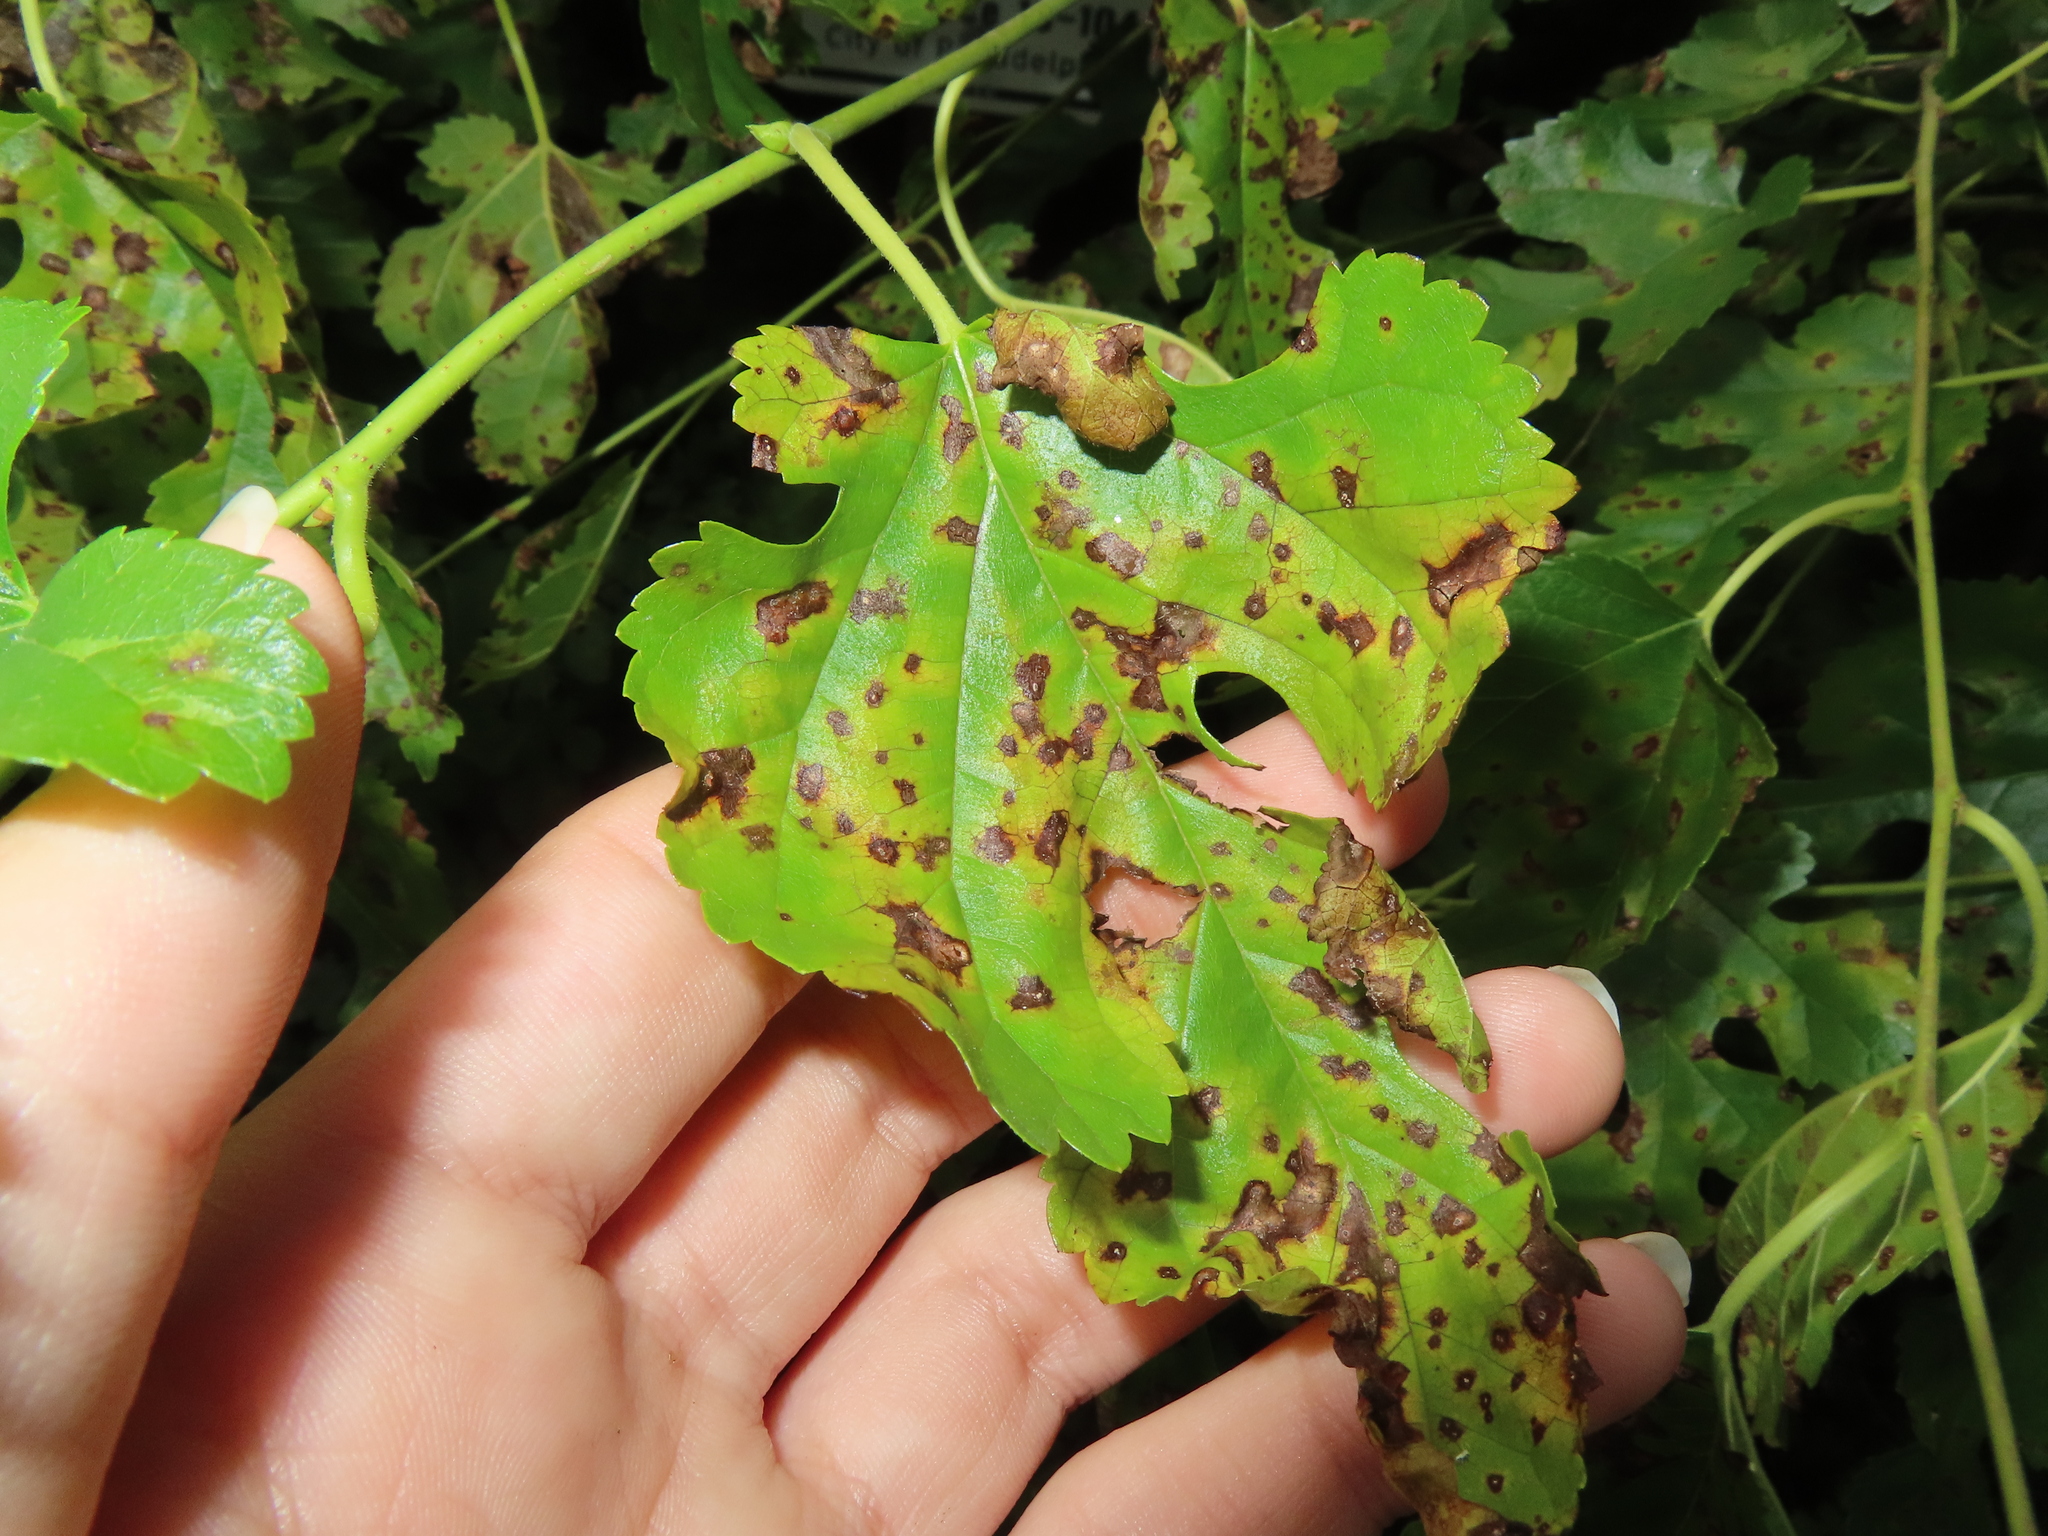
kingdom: Fungi
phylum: Ascomycota
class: Dothideomycetes
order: Mycosphaerellales
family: Mycosphaerellaceae
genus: Cercospora
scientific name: Cercospora moricola
